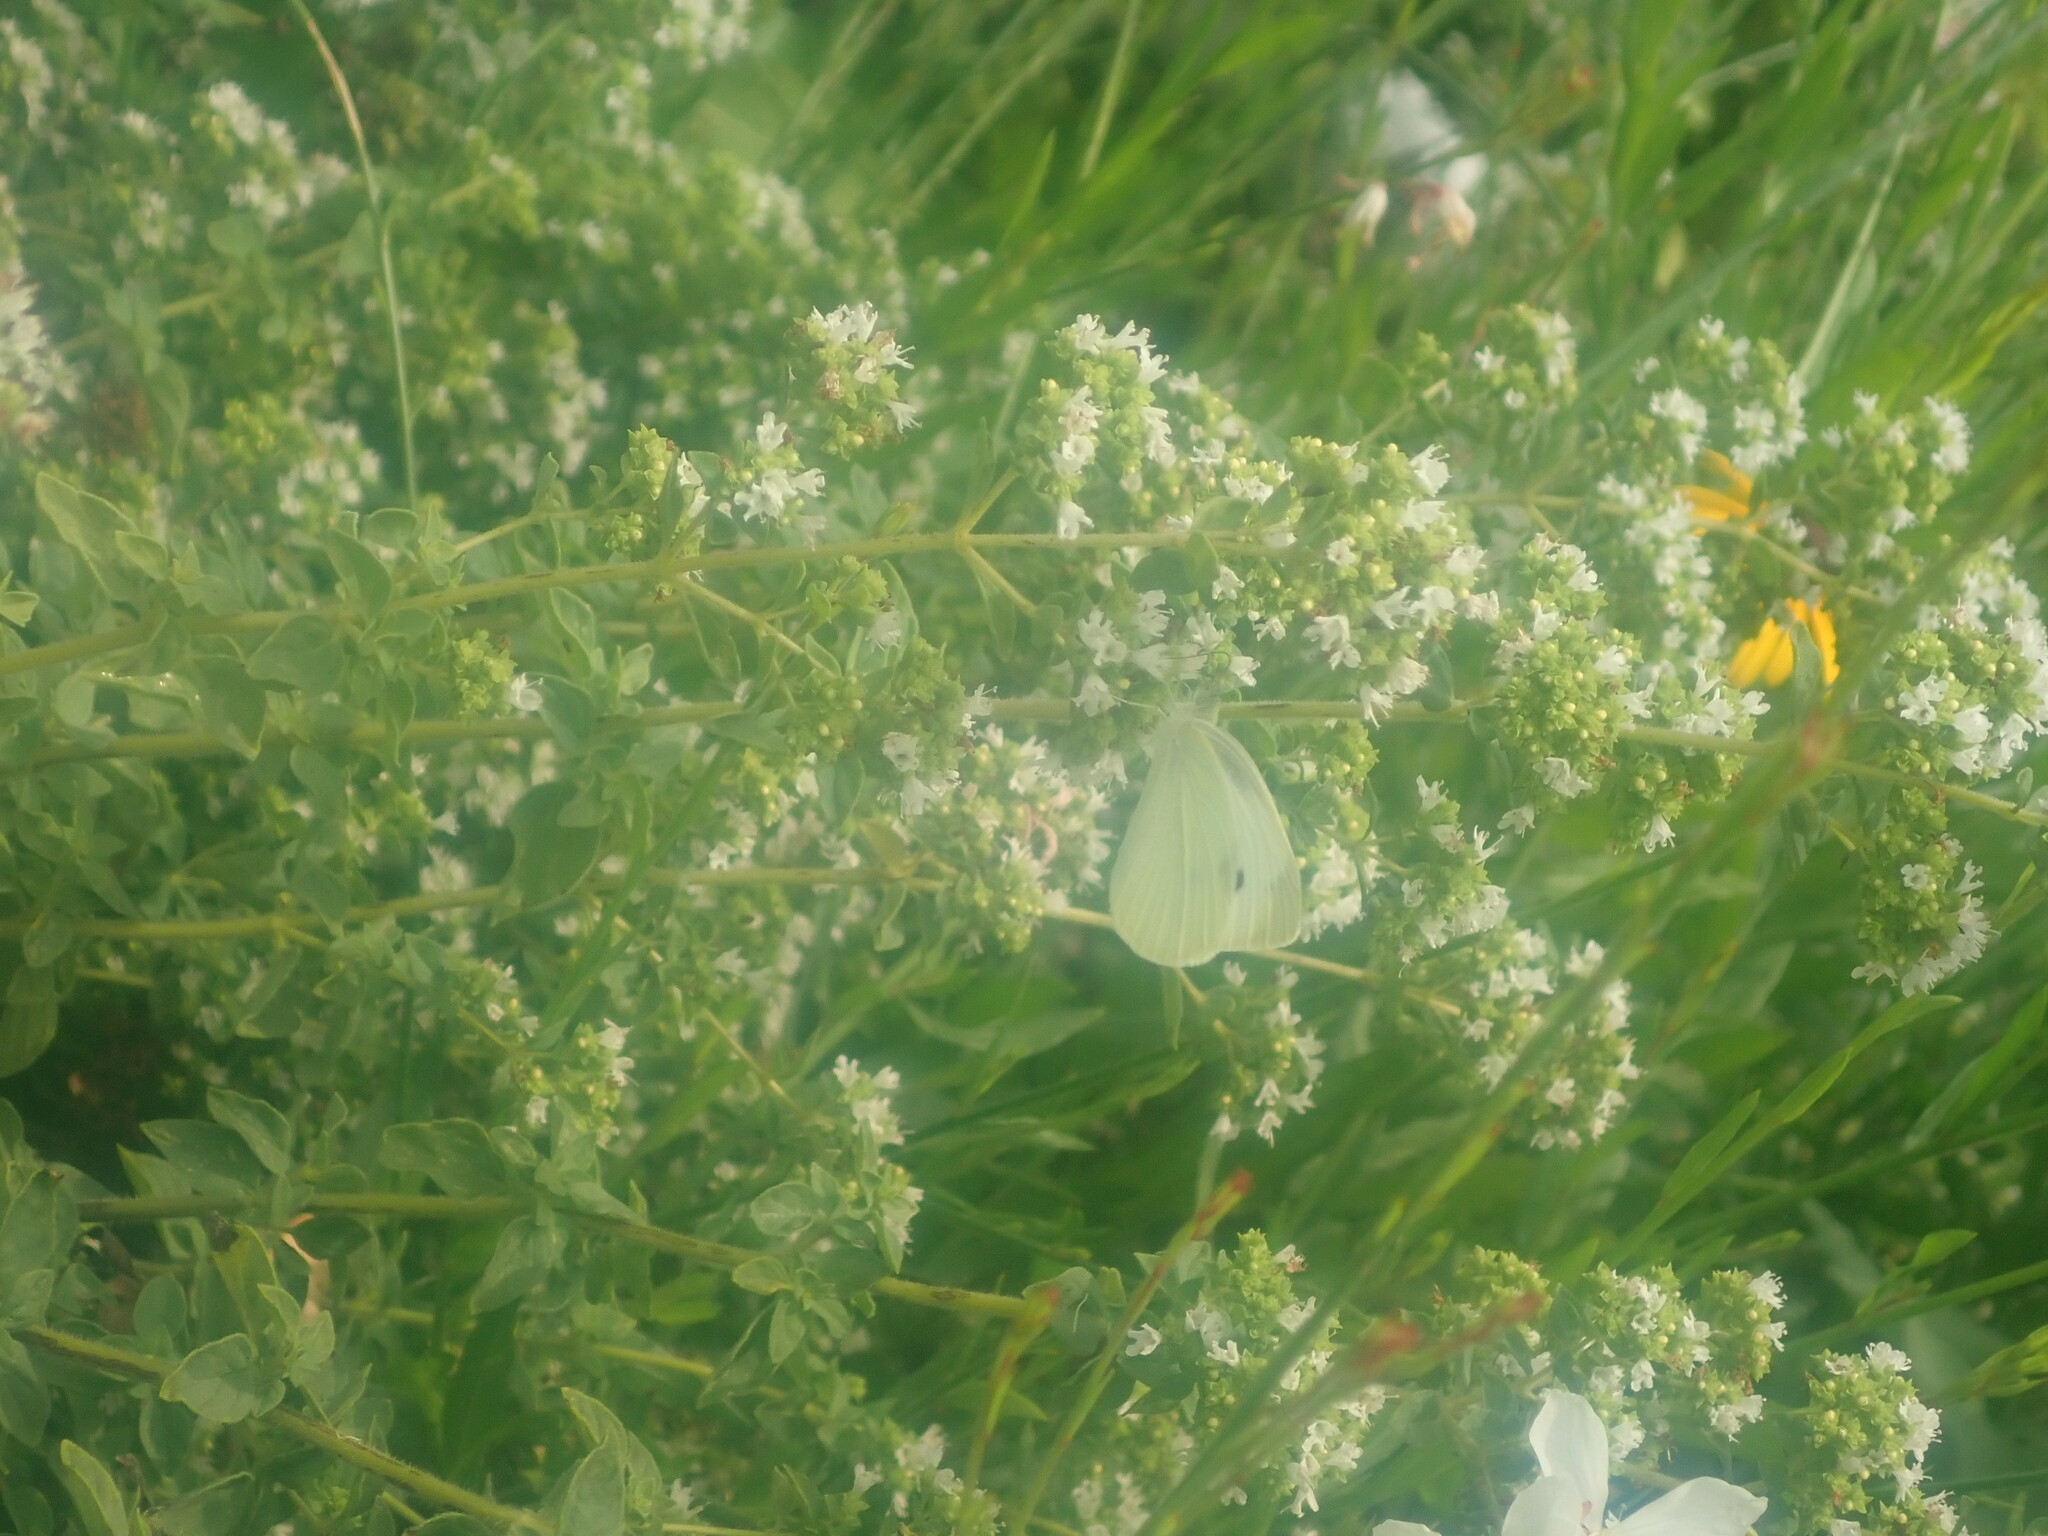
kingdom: Animalia
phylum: Arthropoda
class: Insecta
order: Lepidoptera
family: Pieridae
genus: Pieris
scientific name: Pieris rapae
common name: Small white
